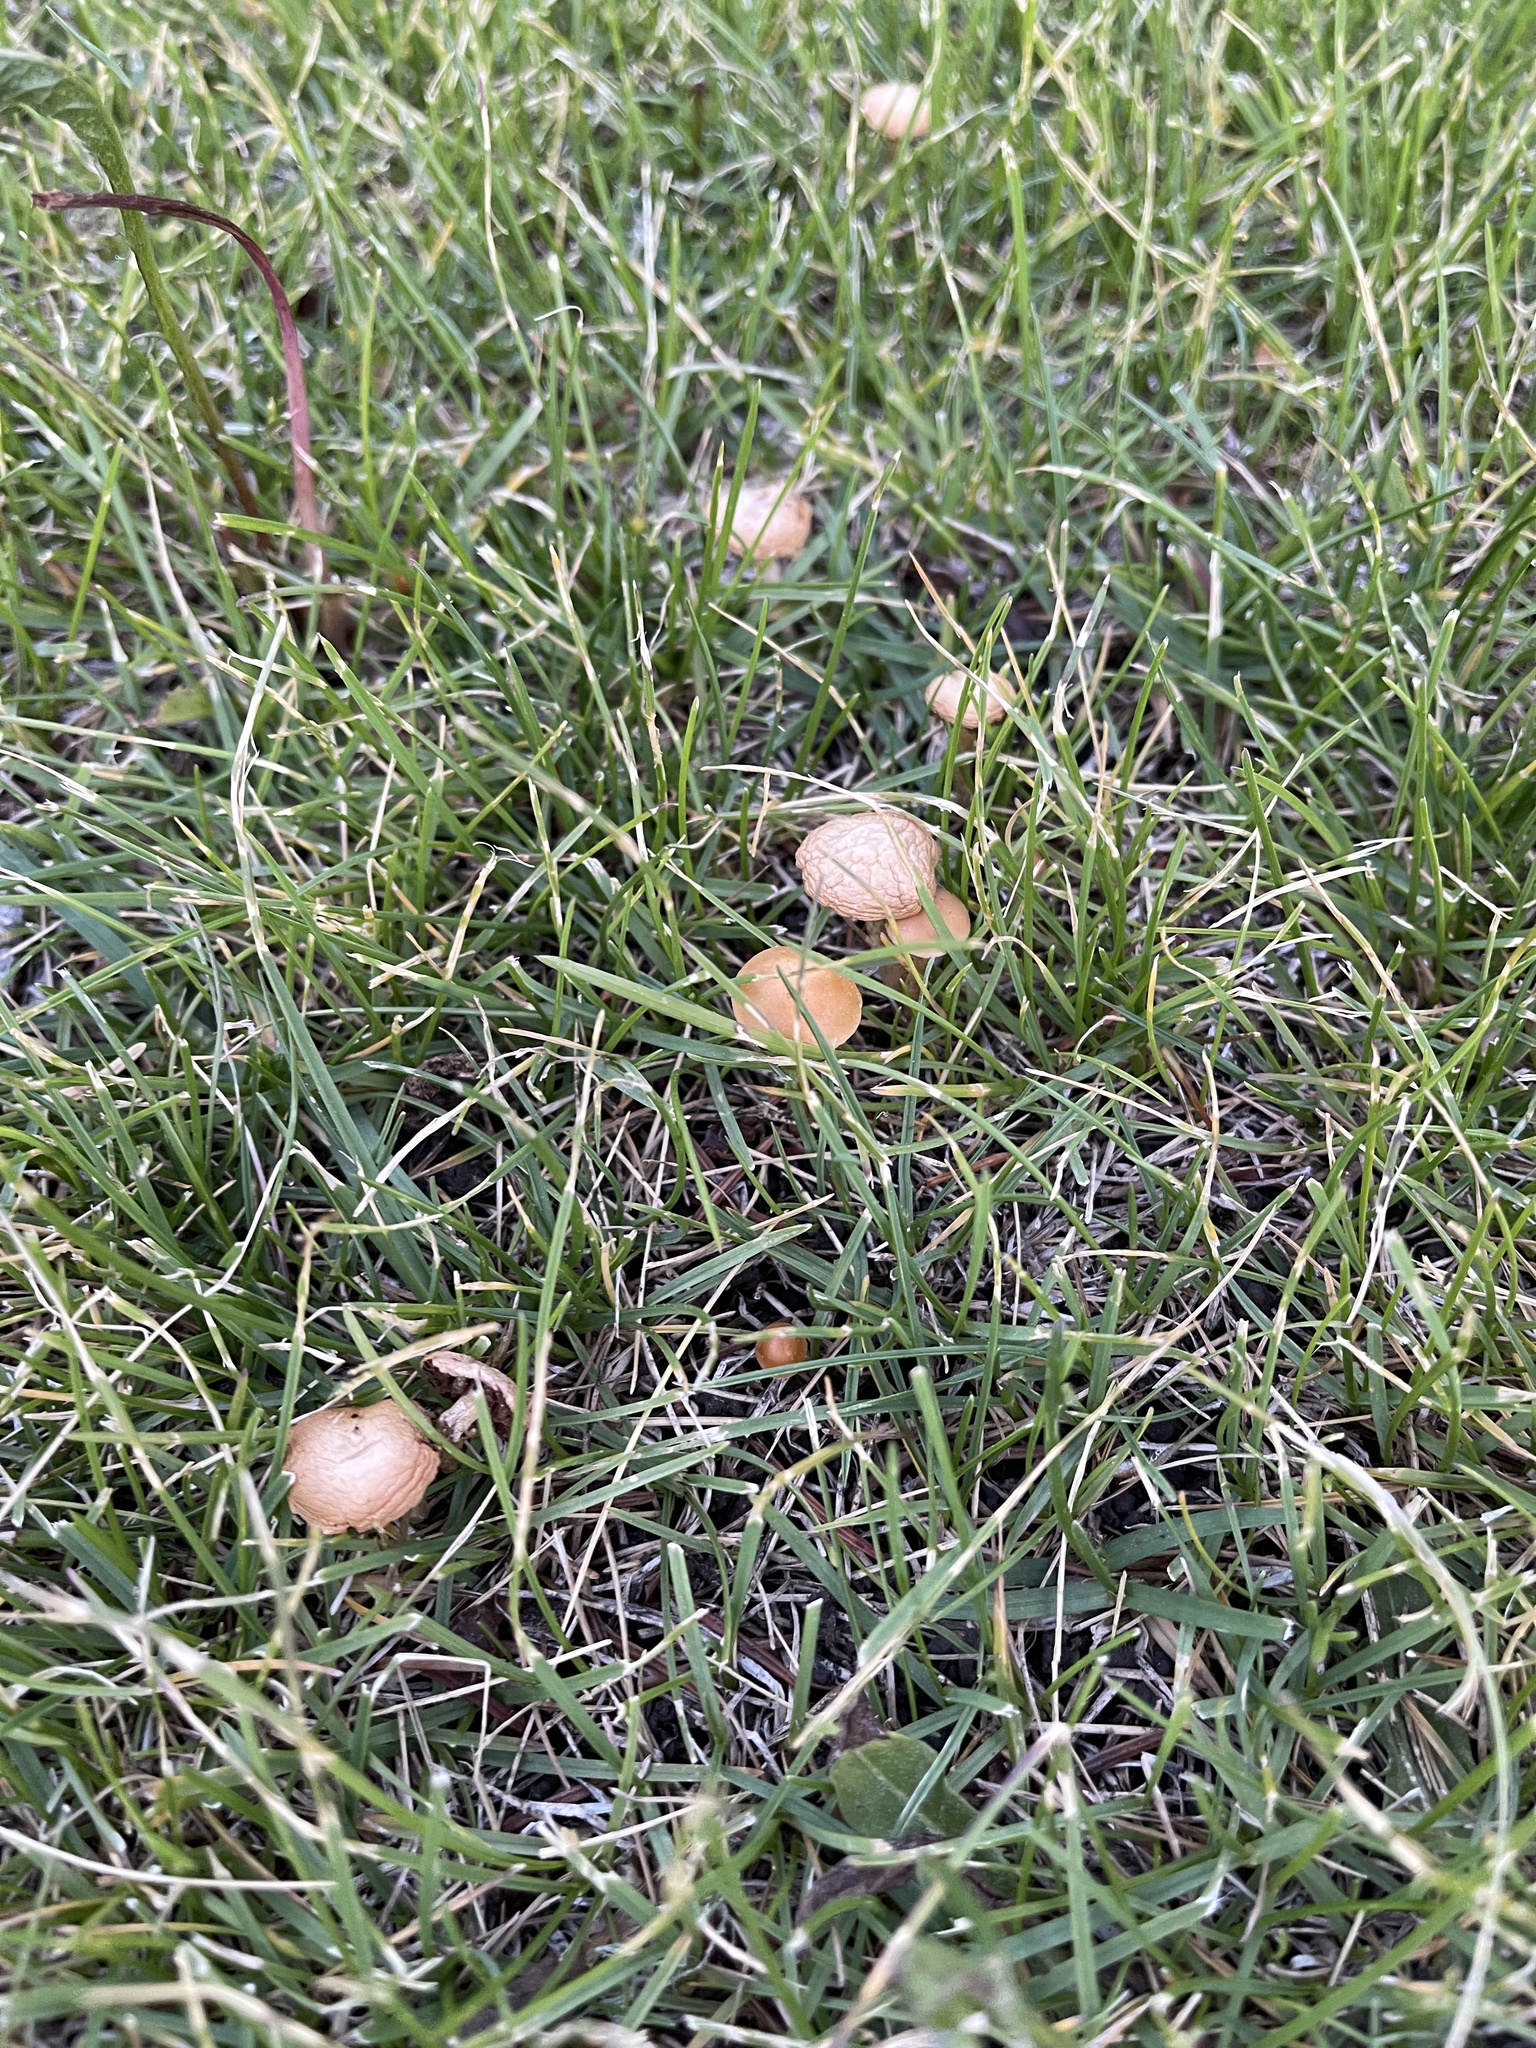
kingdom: Fungi
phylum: Basidiomycota
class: Agaricomycetes
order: Agaricales
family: Strophariaceae
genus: Agrocybe
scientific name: Agrocybe pediades
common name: Common fieldcap
